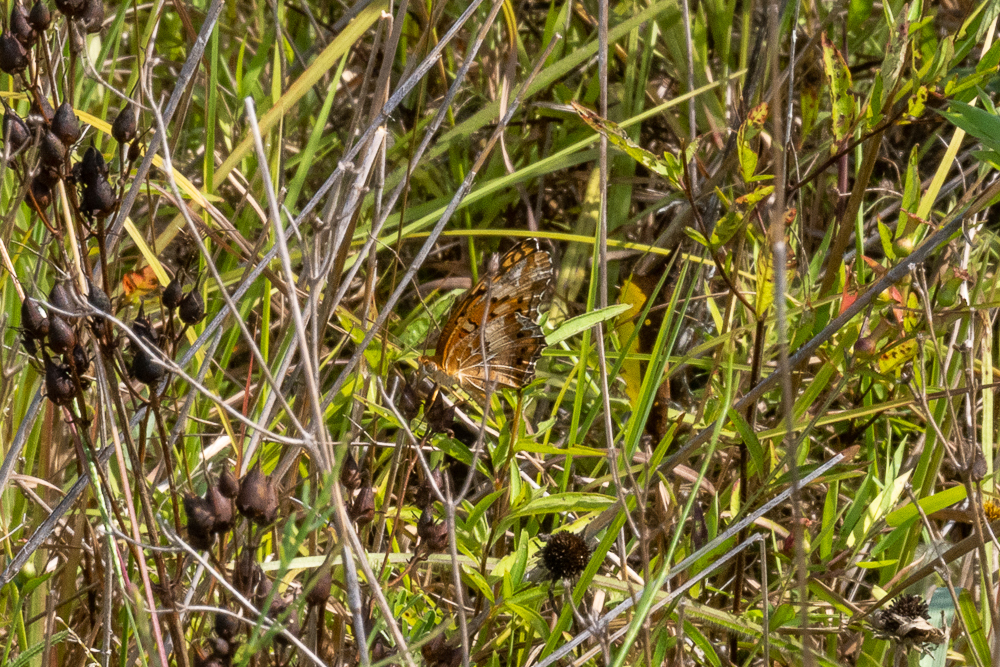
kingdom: Animalia
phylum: Arthropoda
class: Insecta
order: Lepidoptera
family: Nymphalidae
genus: Euptoieta
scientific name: Euptoieta claudia
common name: Variegated fritillary
